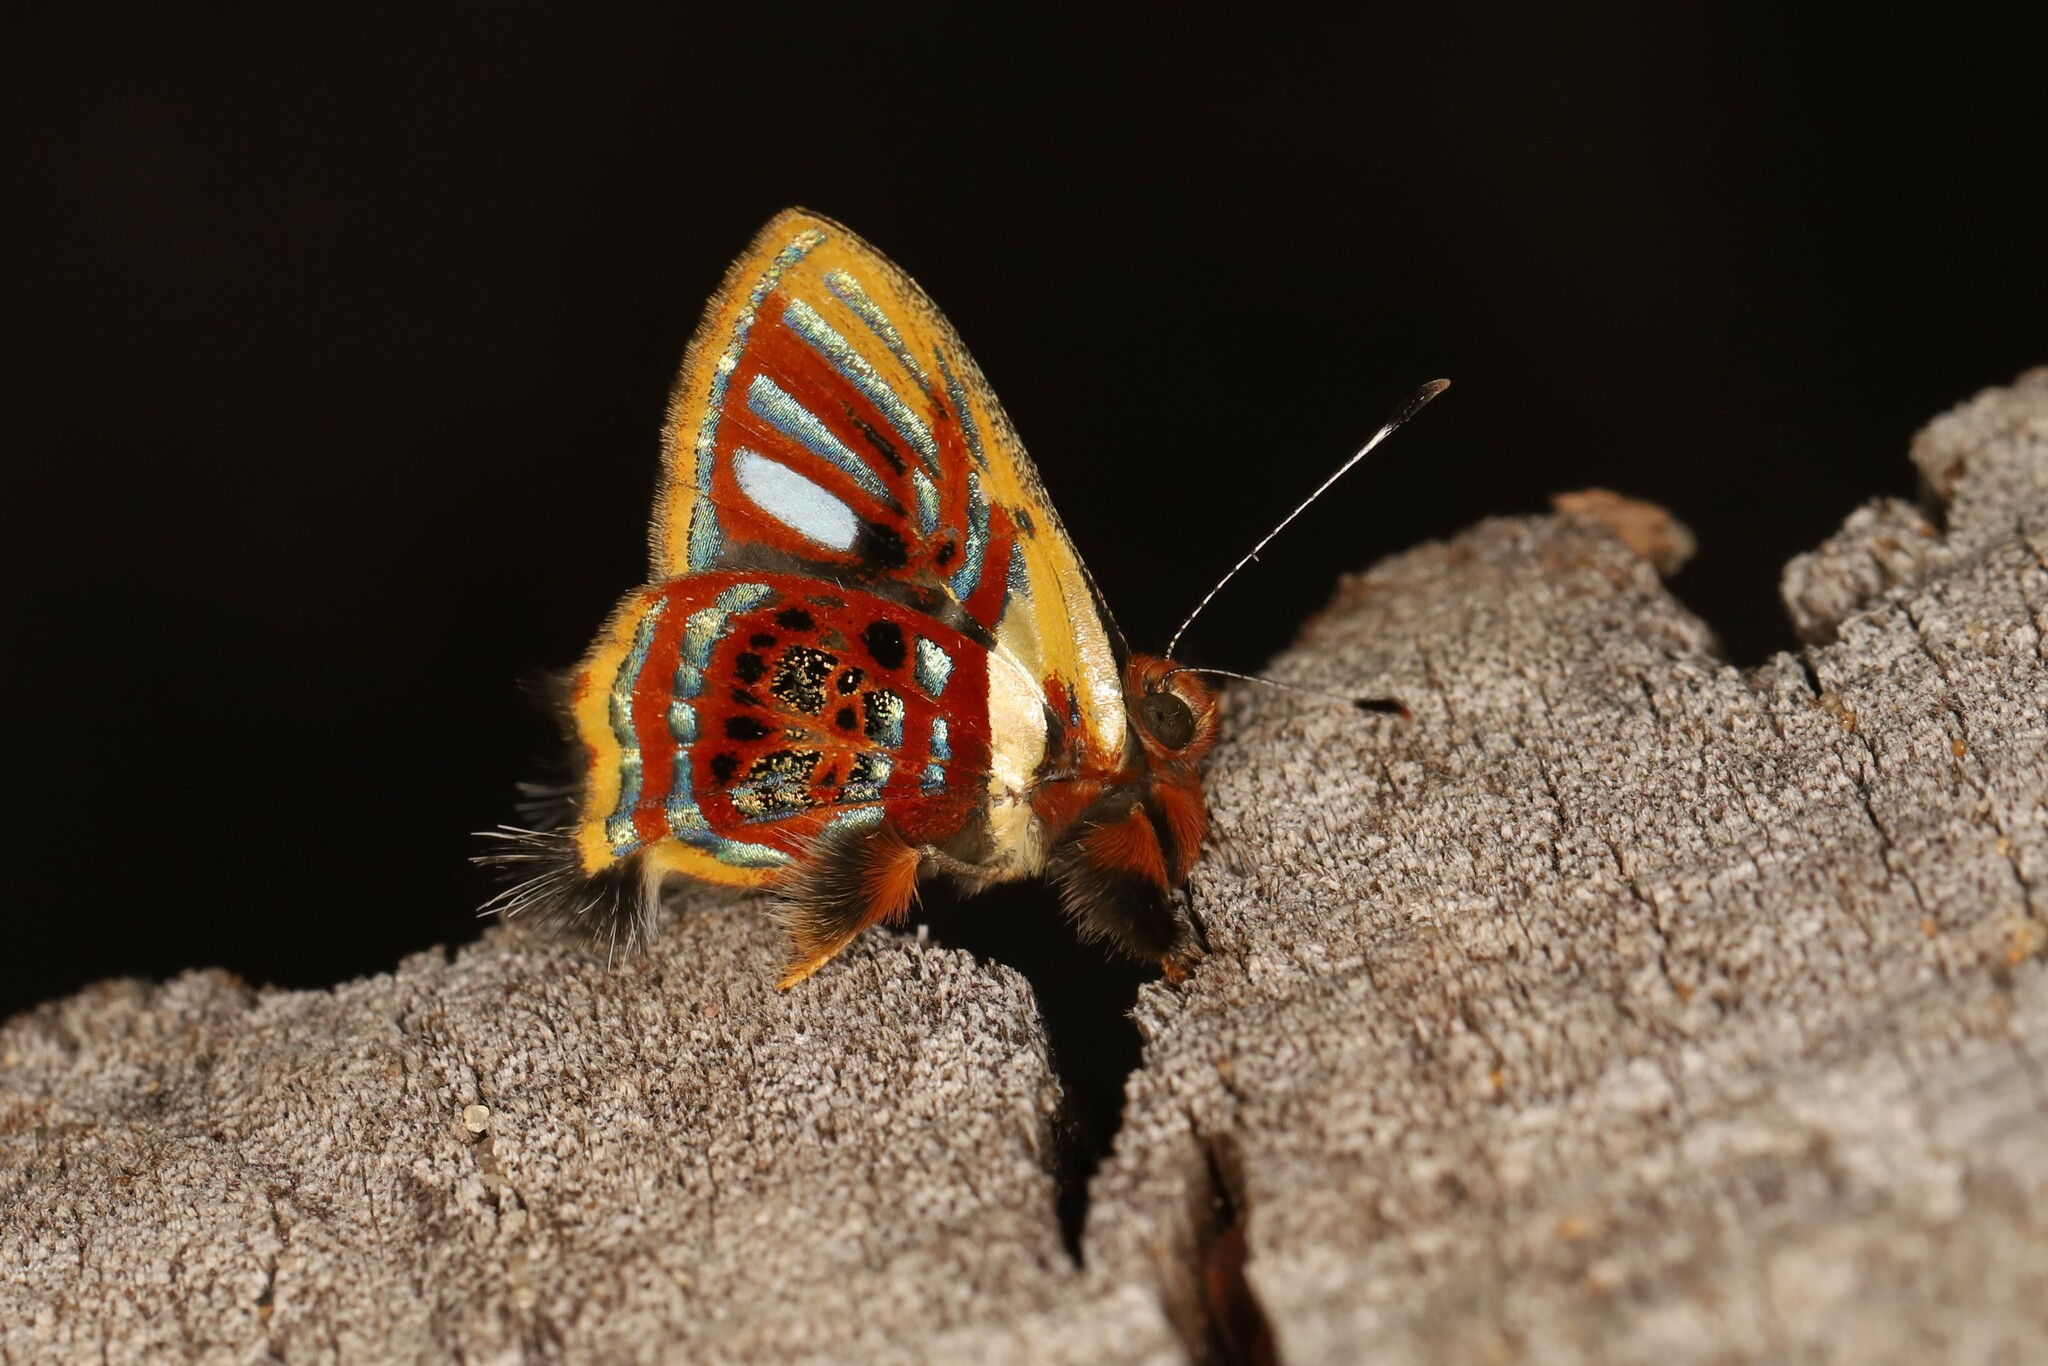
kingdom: Animalia
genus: Anteros
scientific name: Anteros aerosus
